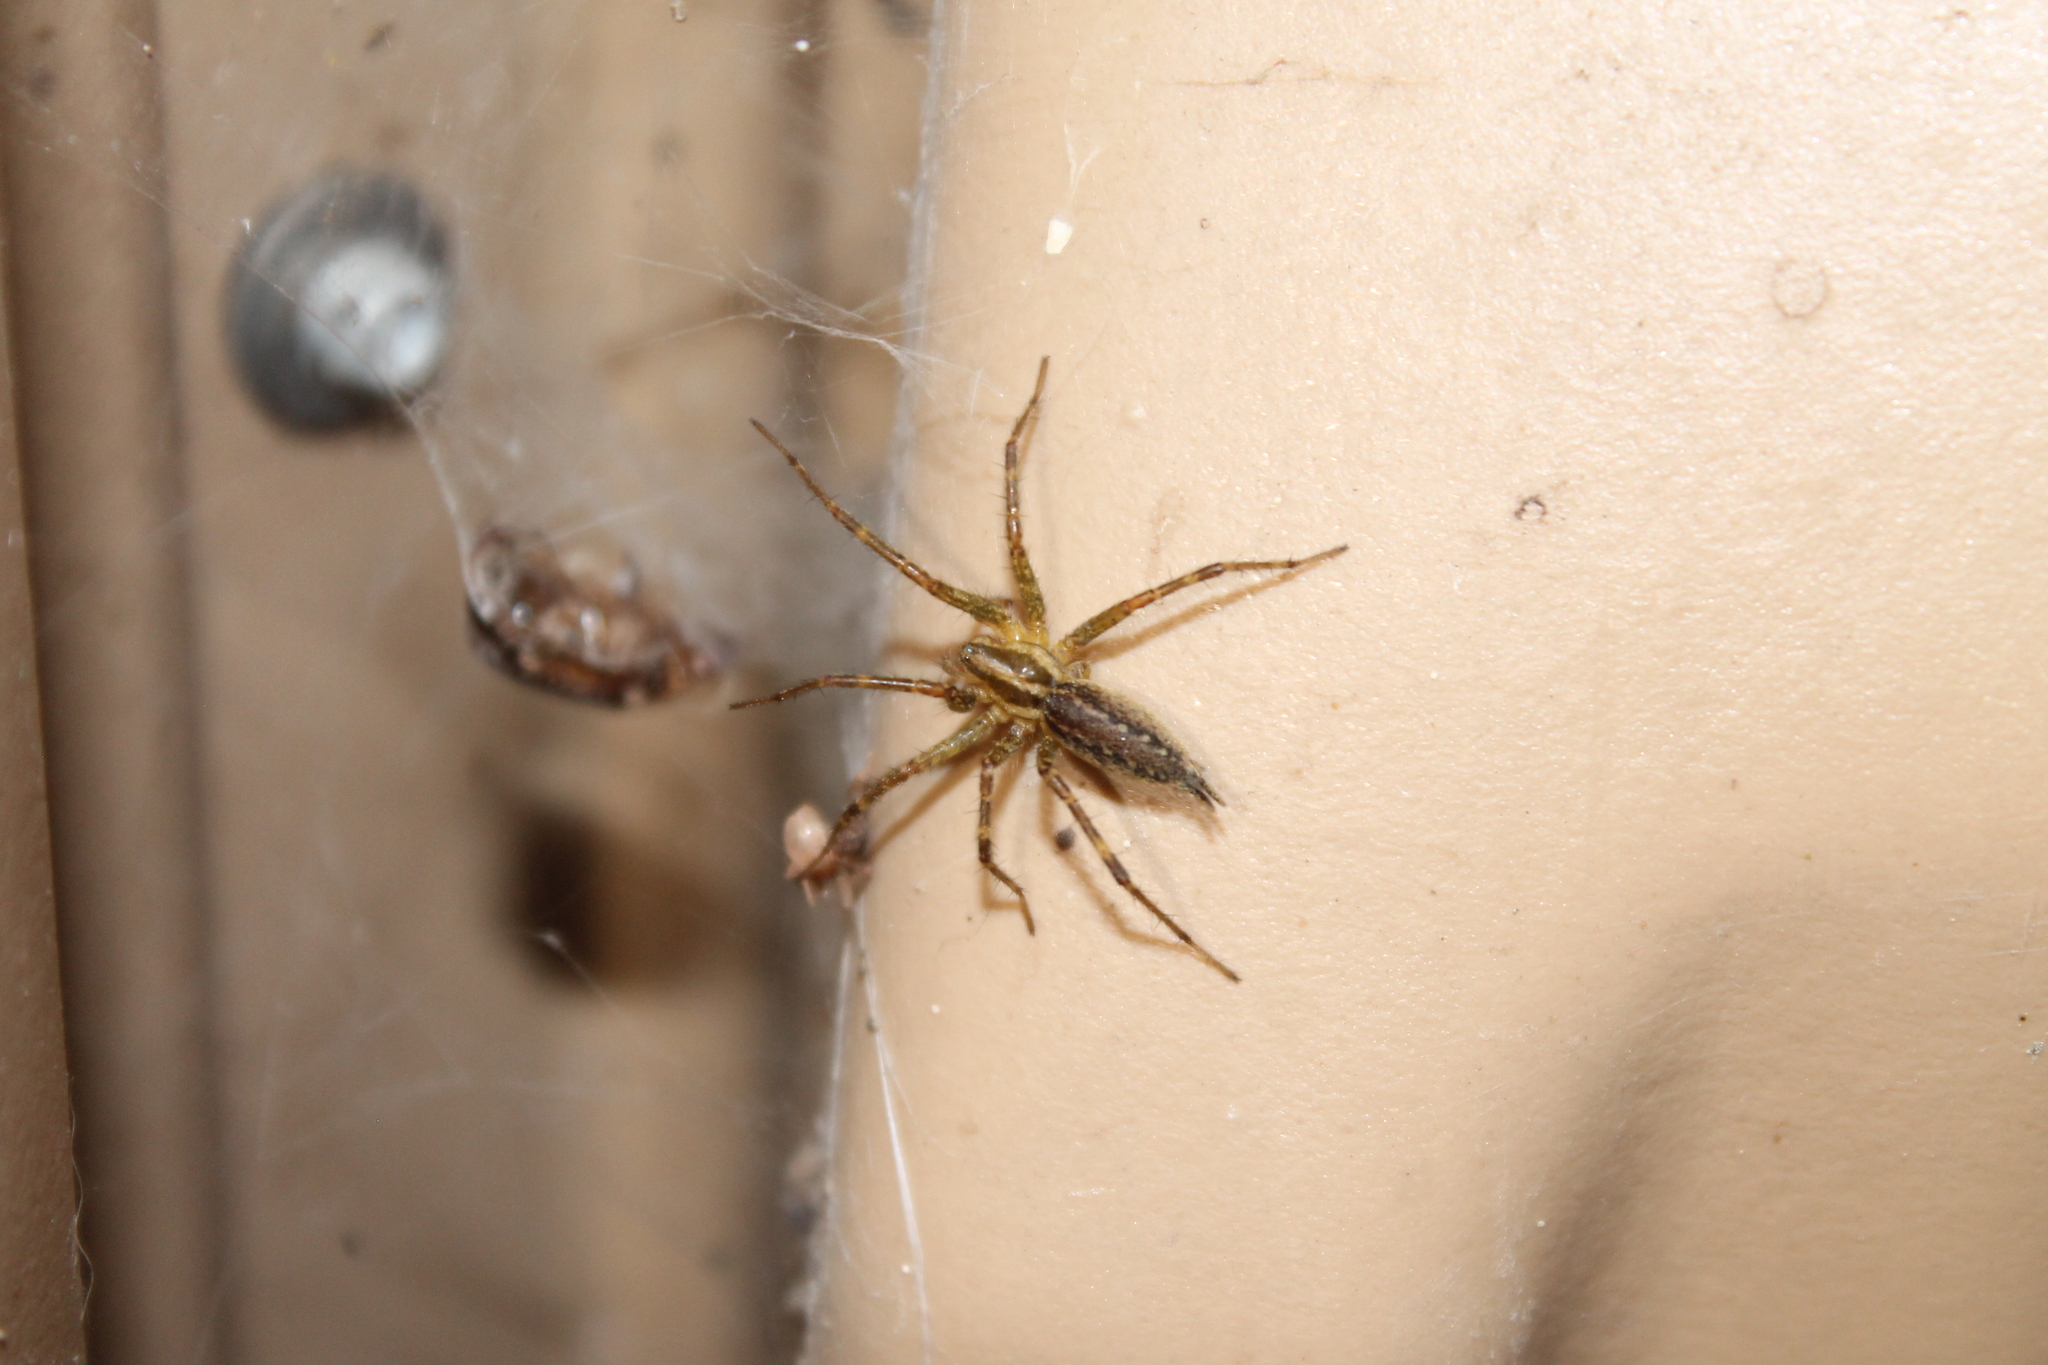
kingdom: Animalia
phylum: Arthropoda
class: Arachnida
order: Araneae
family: Agelenidae
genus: Agelenopsis
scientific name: Agelenopsis
